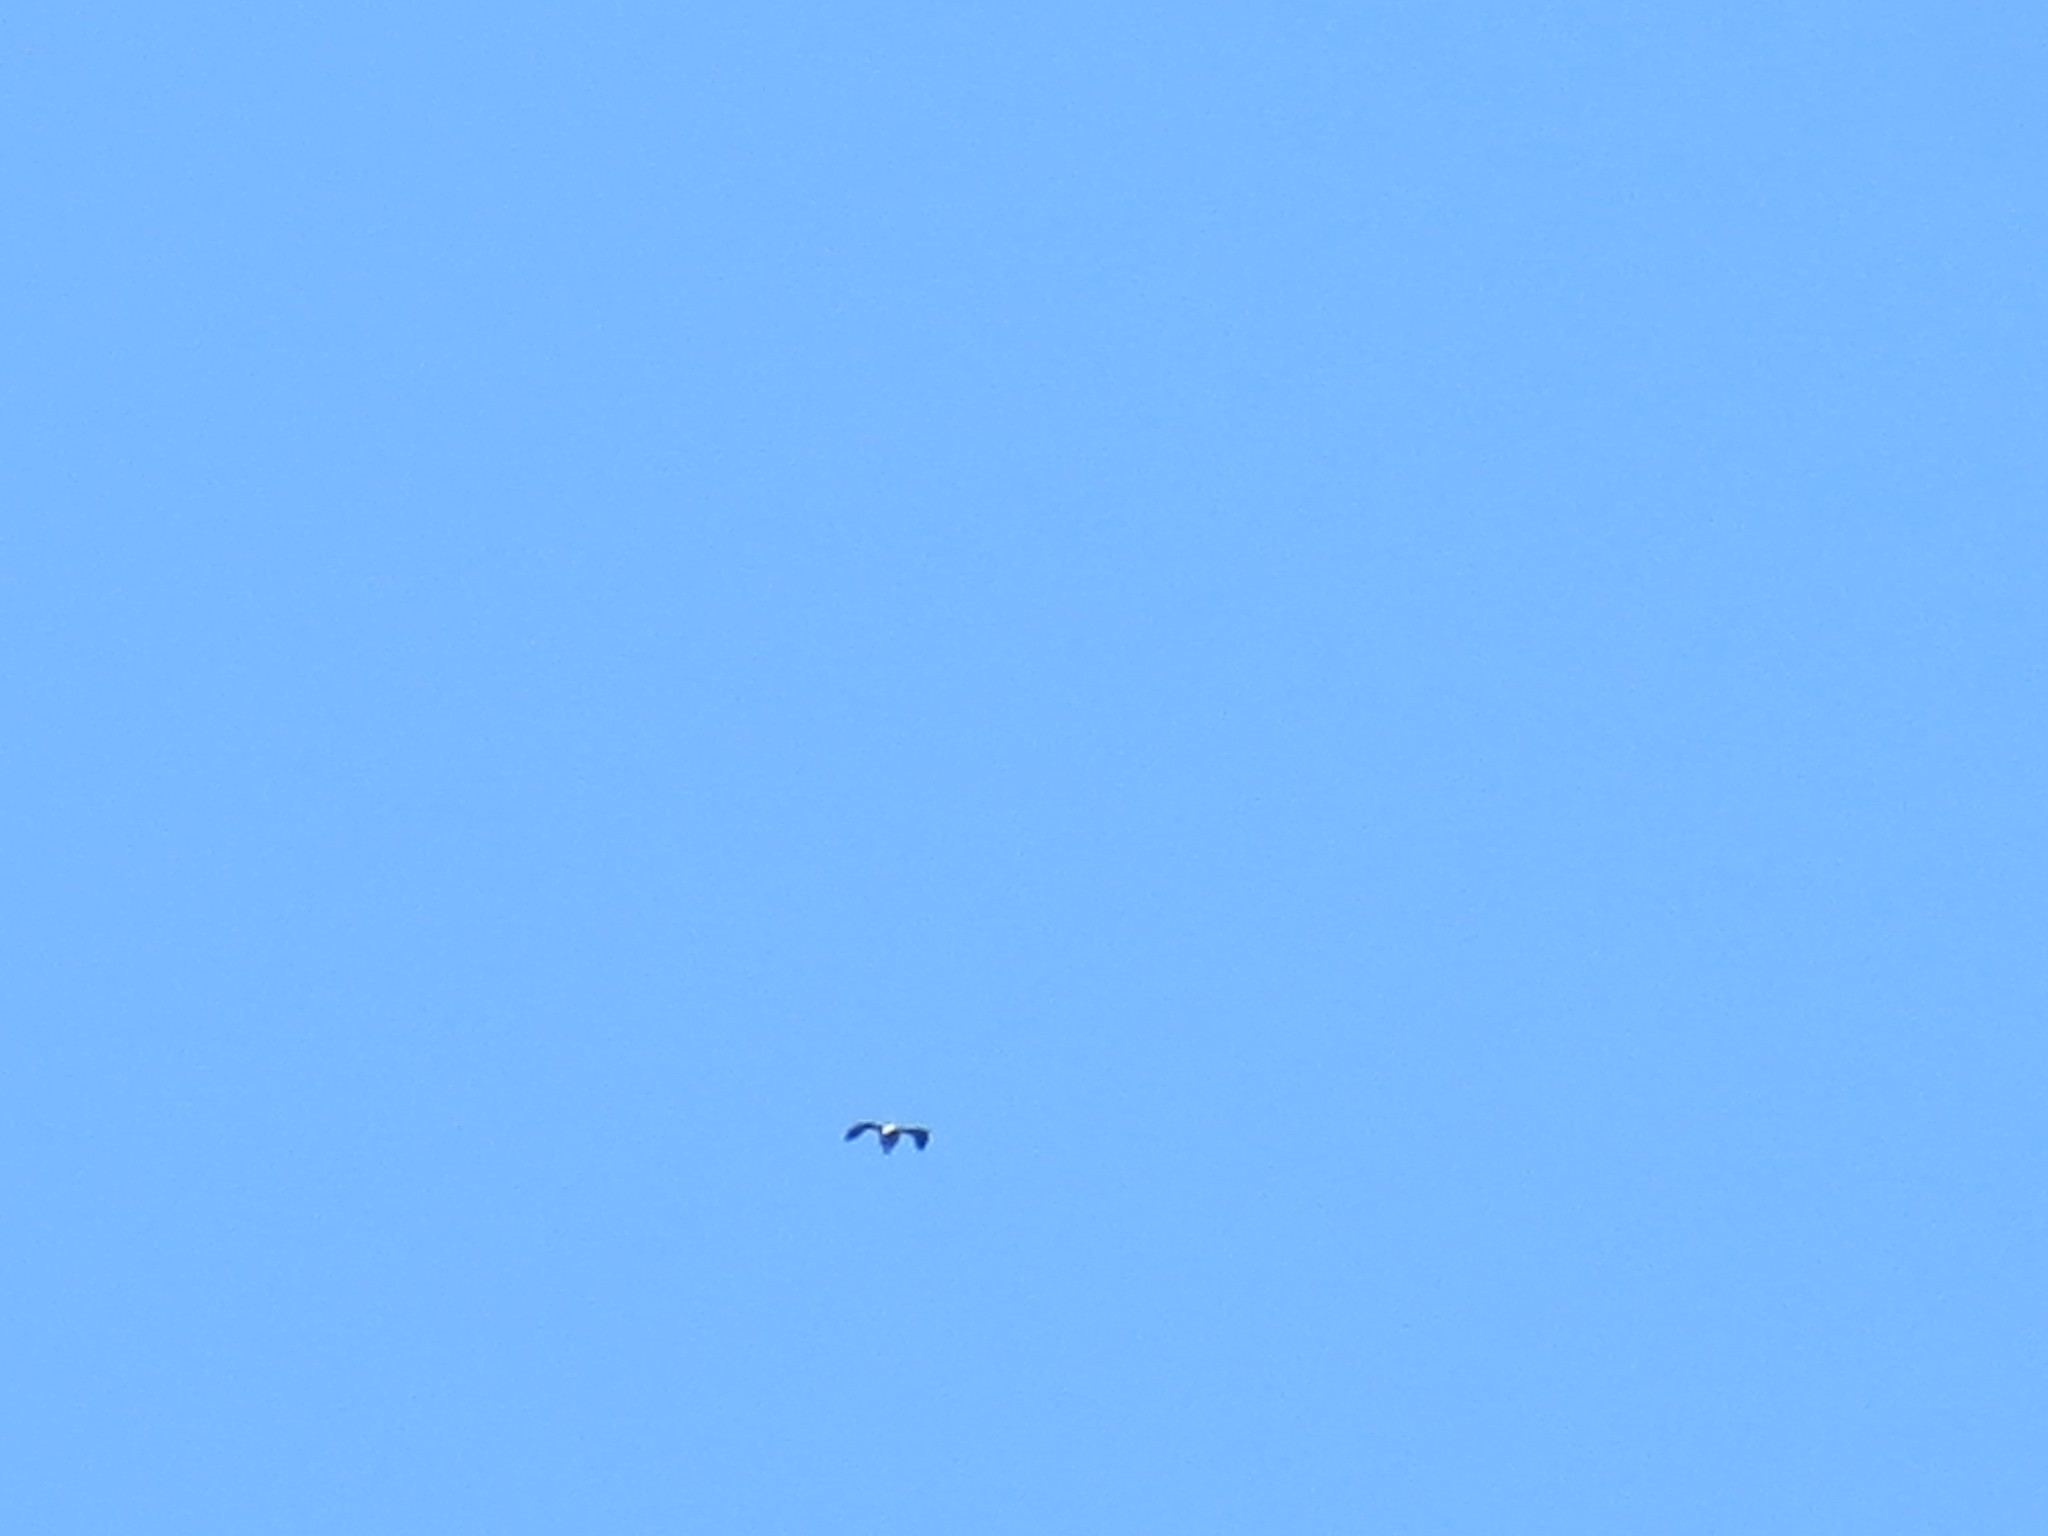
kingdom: Animalia
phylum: Chordata
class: Aves
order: Accipitriformes
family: Accipitridae
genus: Ictinia
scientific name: Ictinia mississippiensis
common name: Mississippi kite
